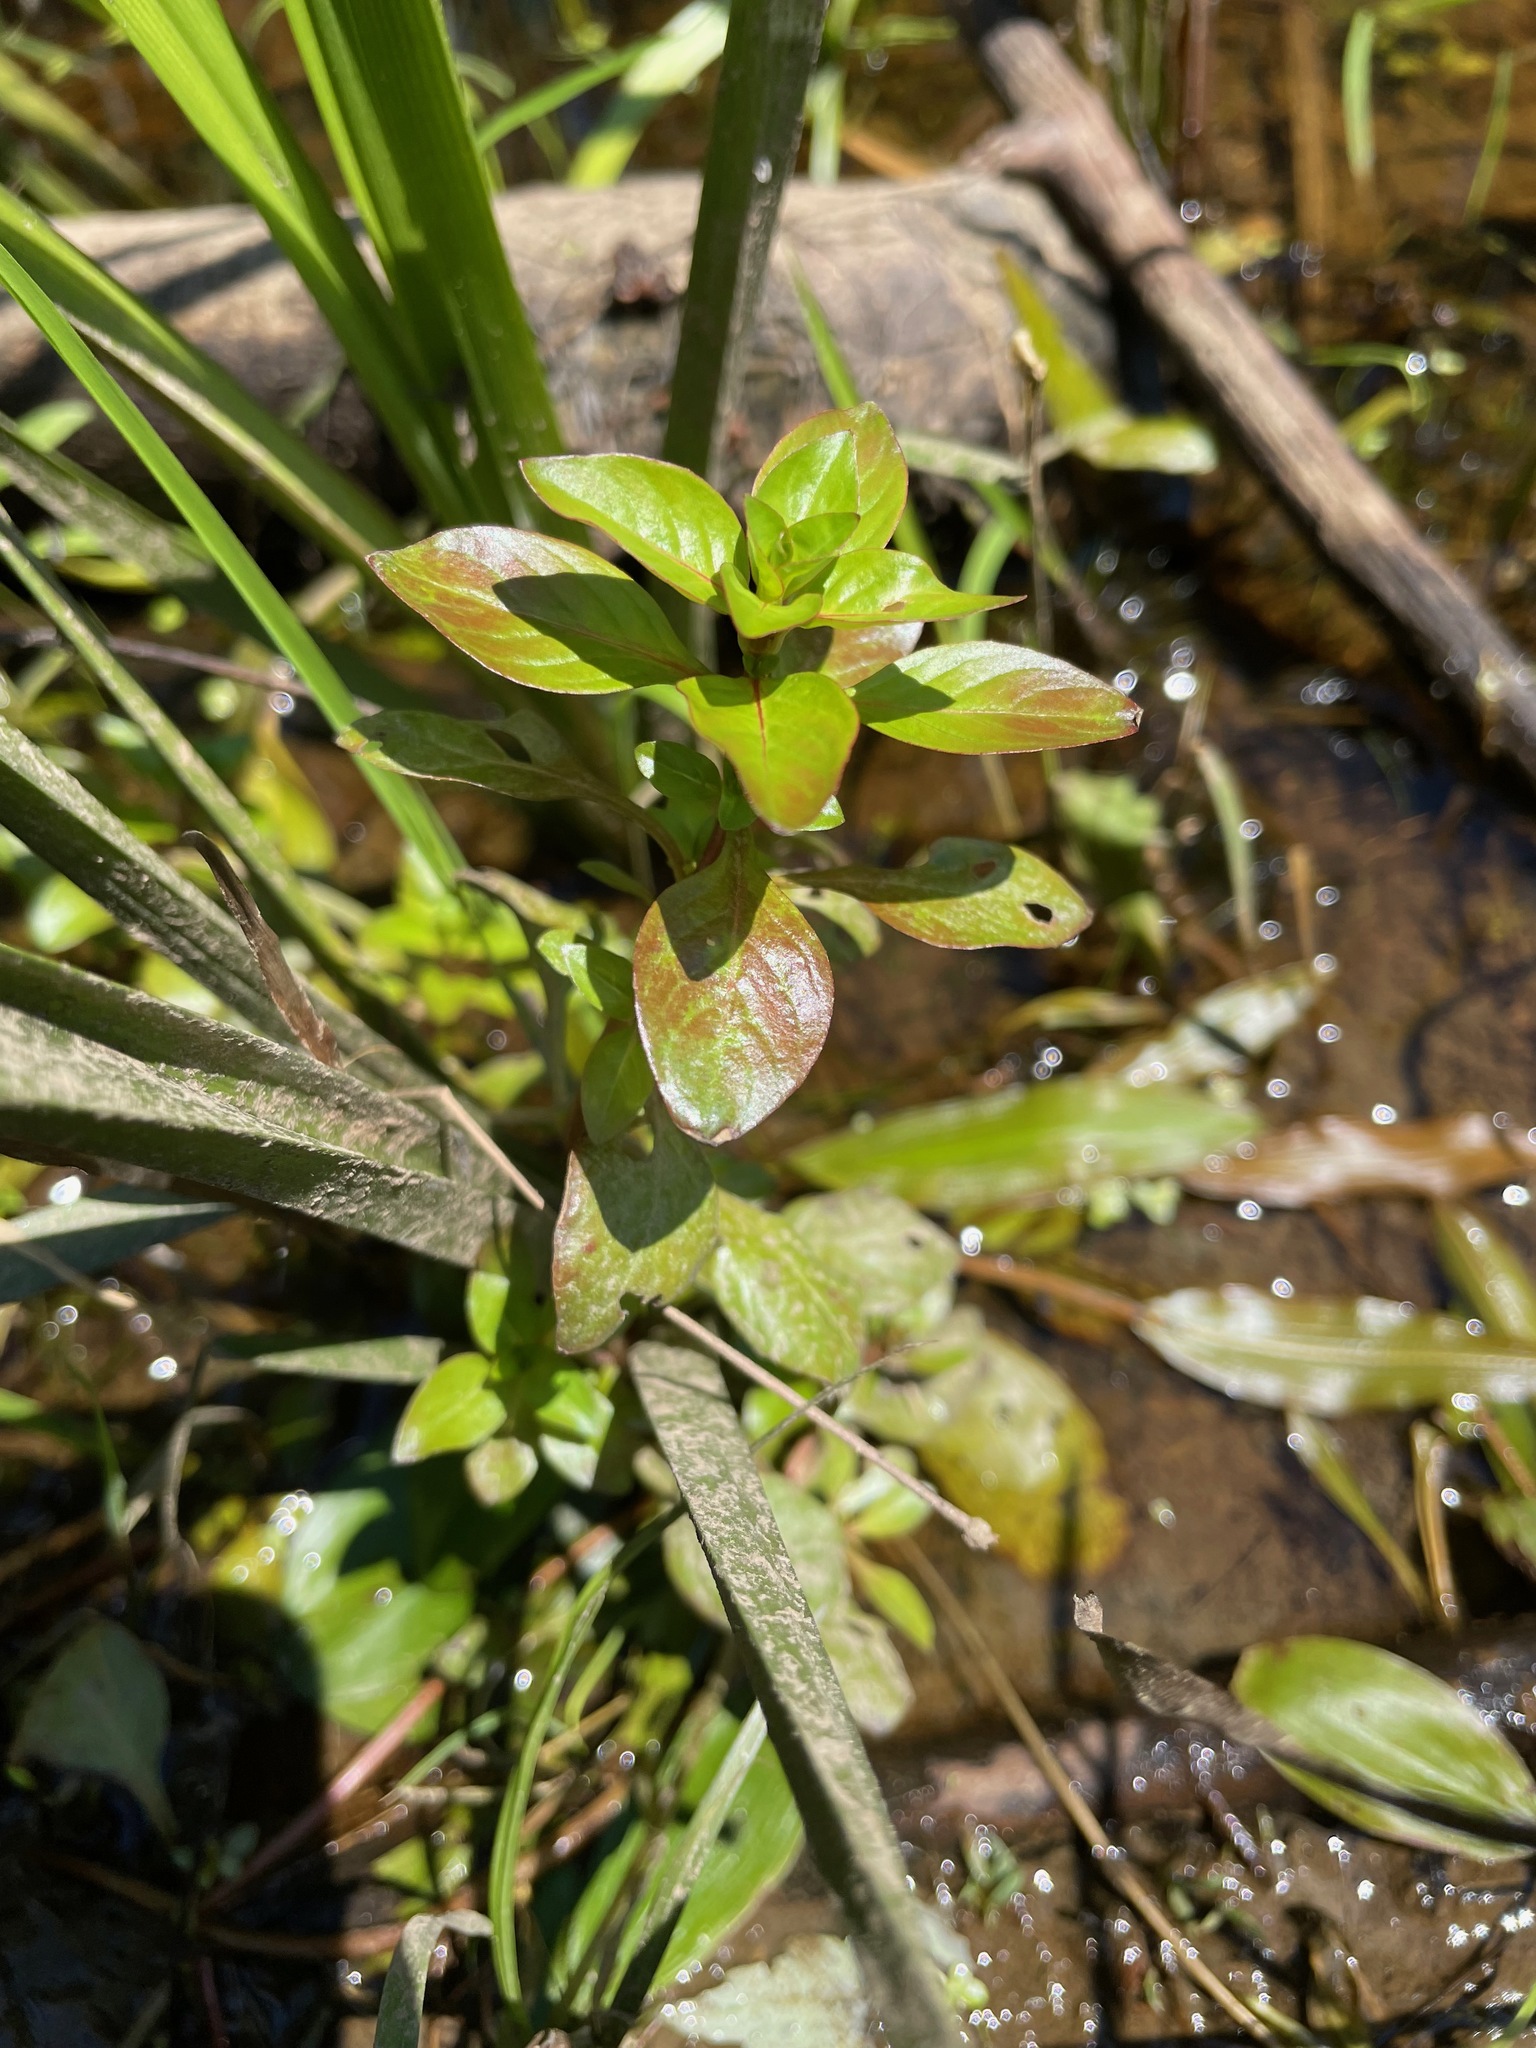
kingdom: Plantae
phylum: Tracheophyta
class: Magnoliopsida
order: Myrtales
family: Onagraceae
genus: Ludwigia
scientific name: Ludwigia palustris
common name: Hampshire-purslane
